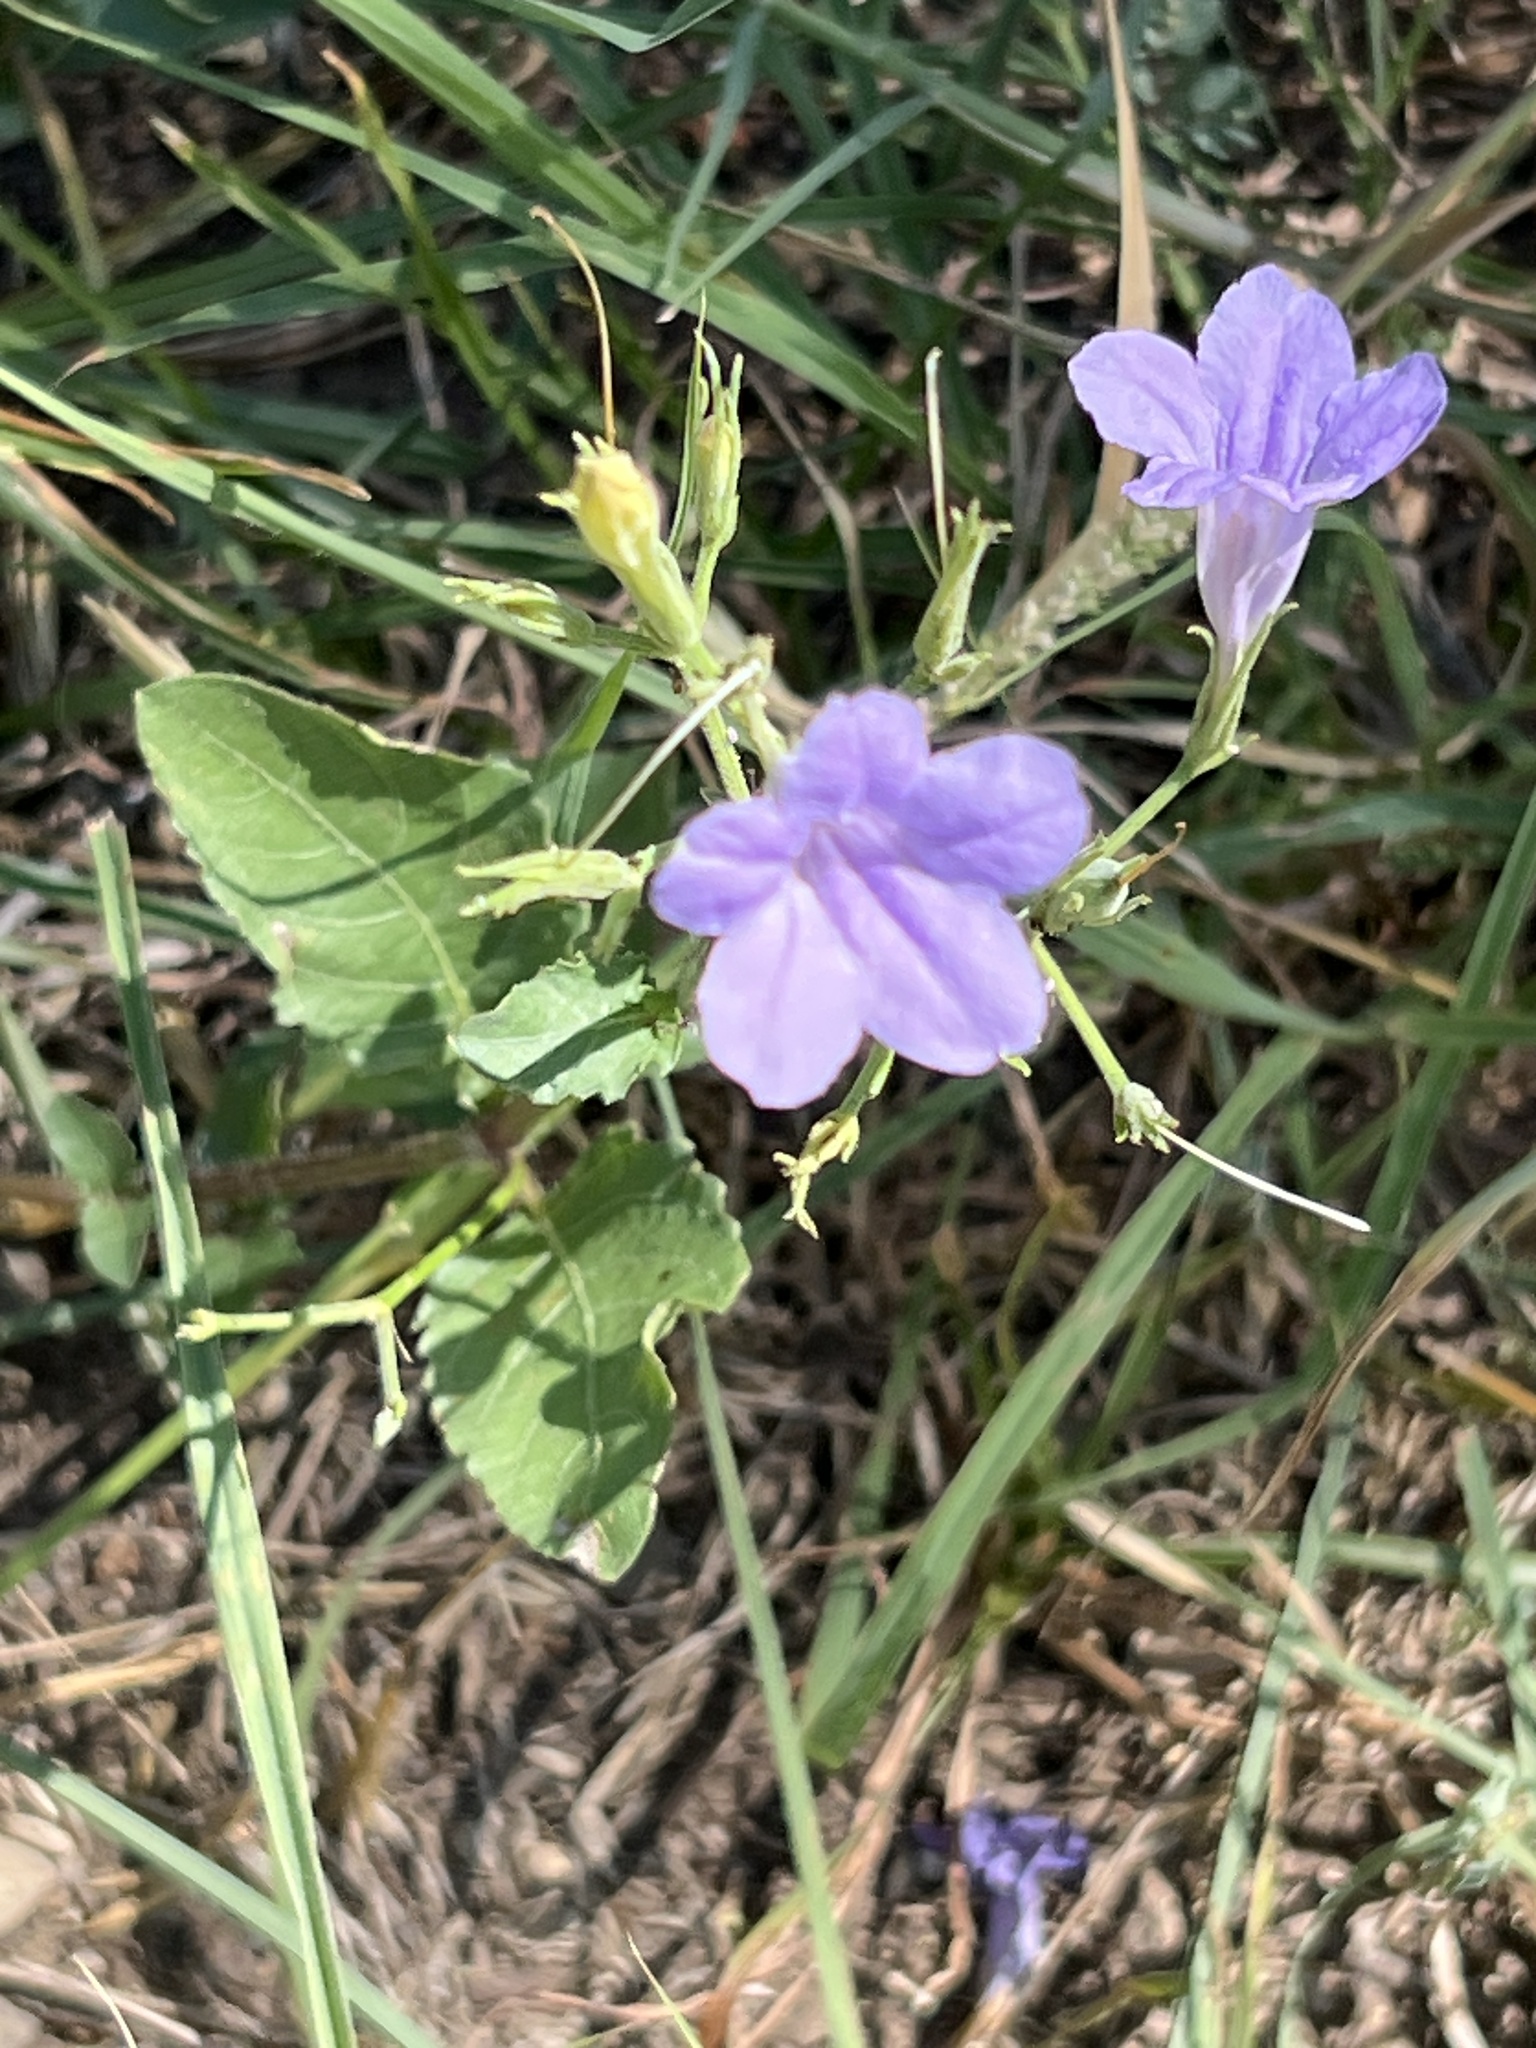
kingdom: Plantae
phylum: Tracheophyta
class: Magnoliopsida
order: Lamiales
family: Acanthaceae
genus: Ruellia
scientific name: Ruellia ciliatiflora
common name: Hairyflower wild petunia
